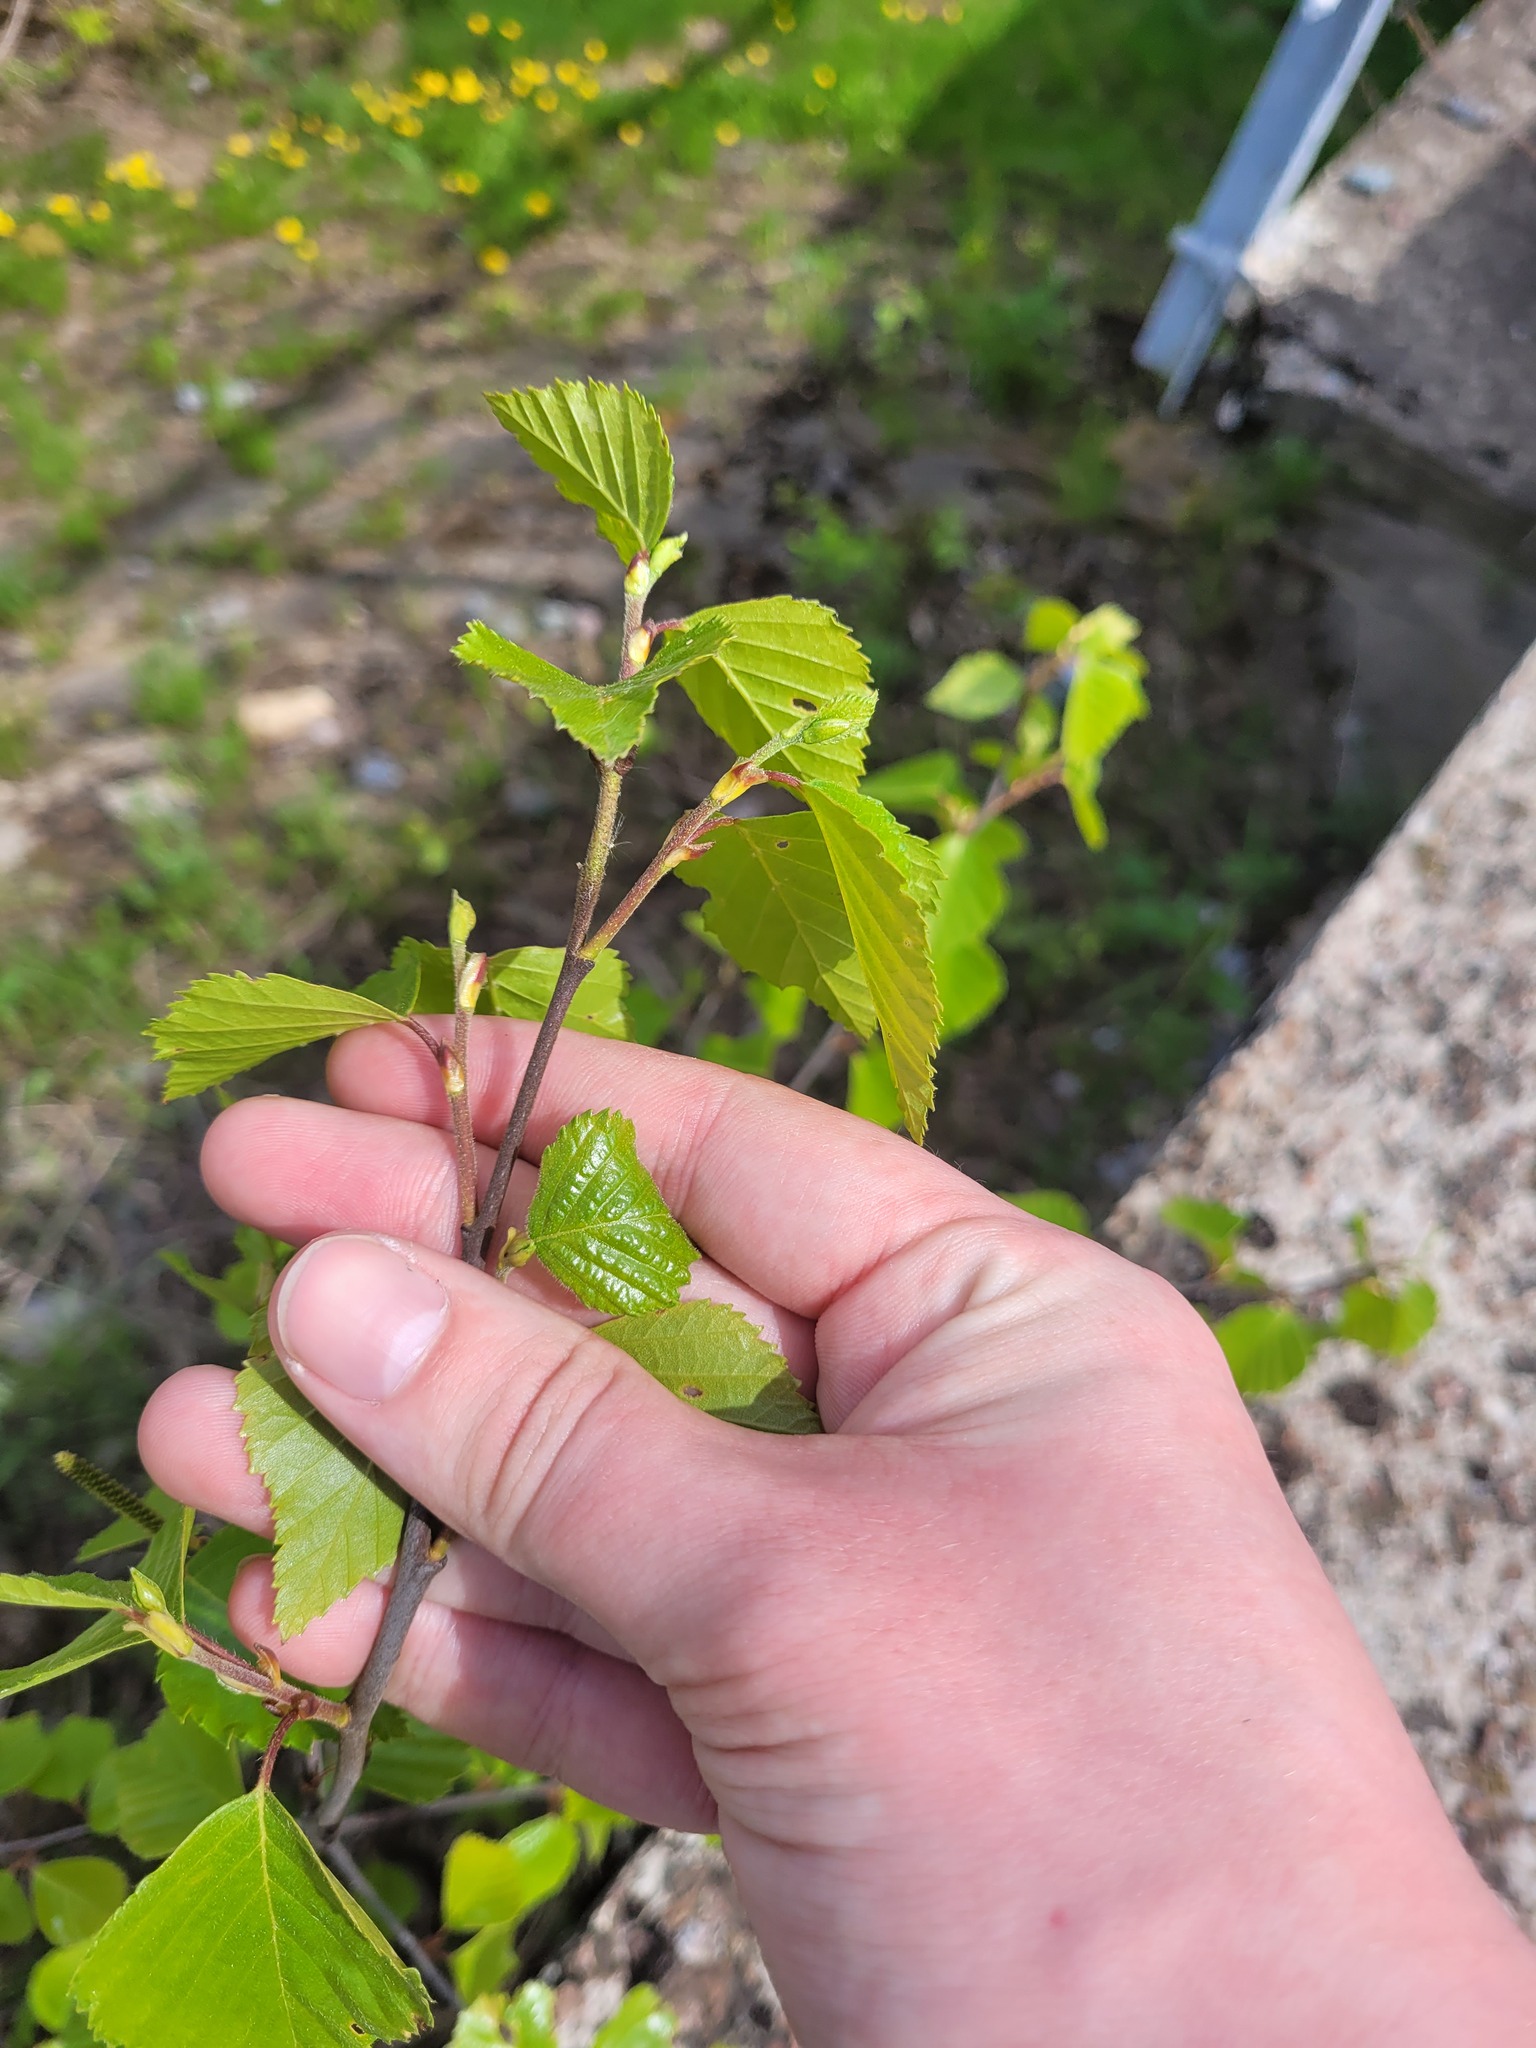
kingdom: Plantae
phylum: Tracheophyta
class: Magnoliopsida
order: Fagales
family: Betulaceae
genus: Betula
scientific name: Betula pubescens
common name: Downy birch
